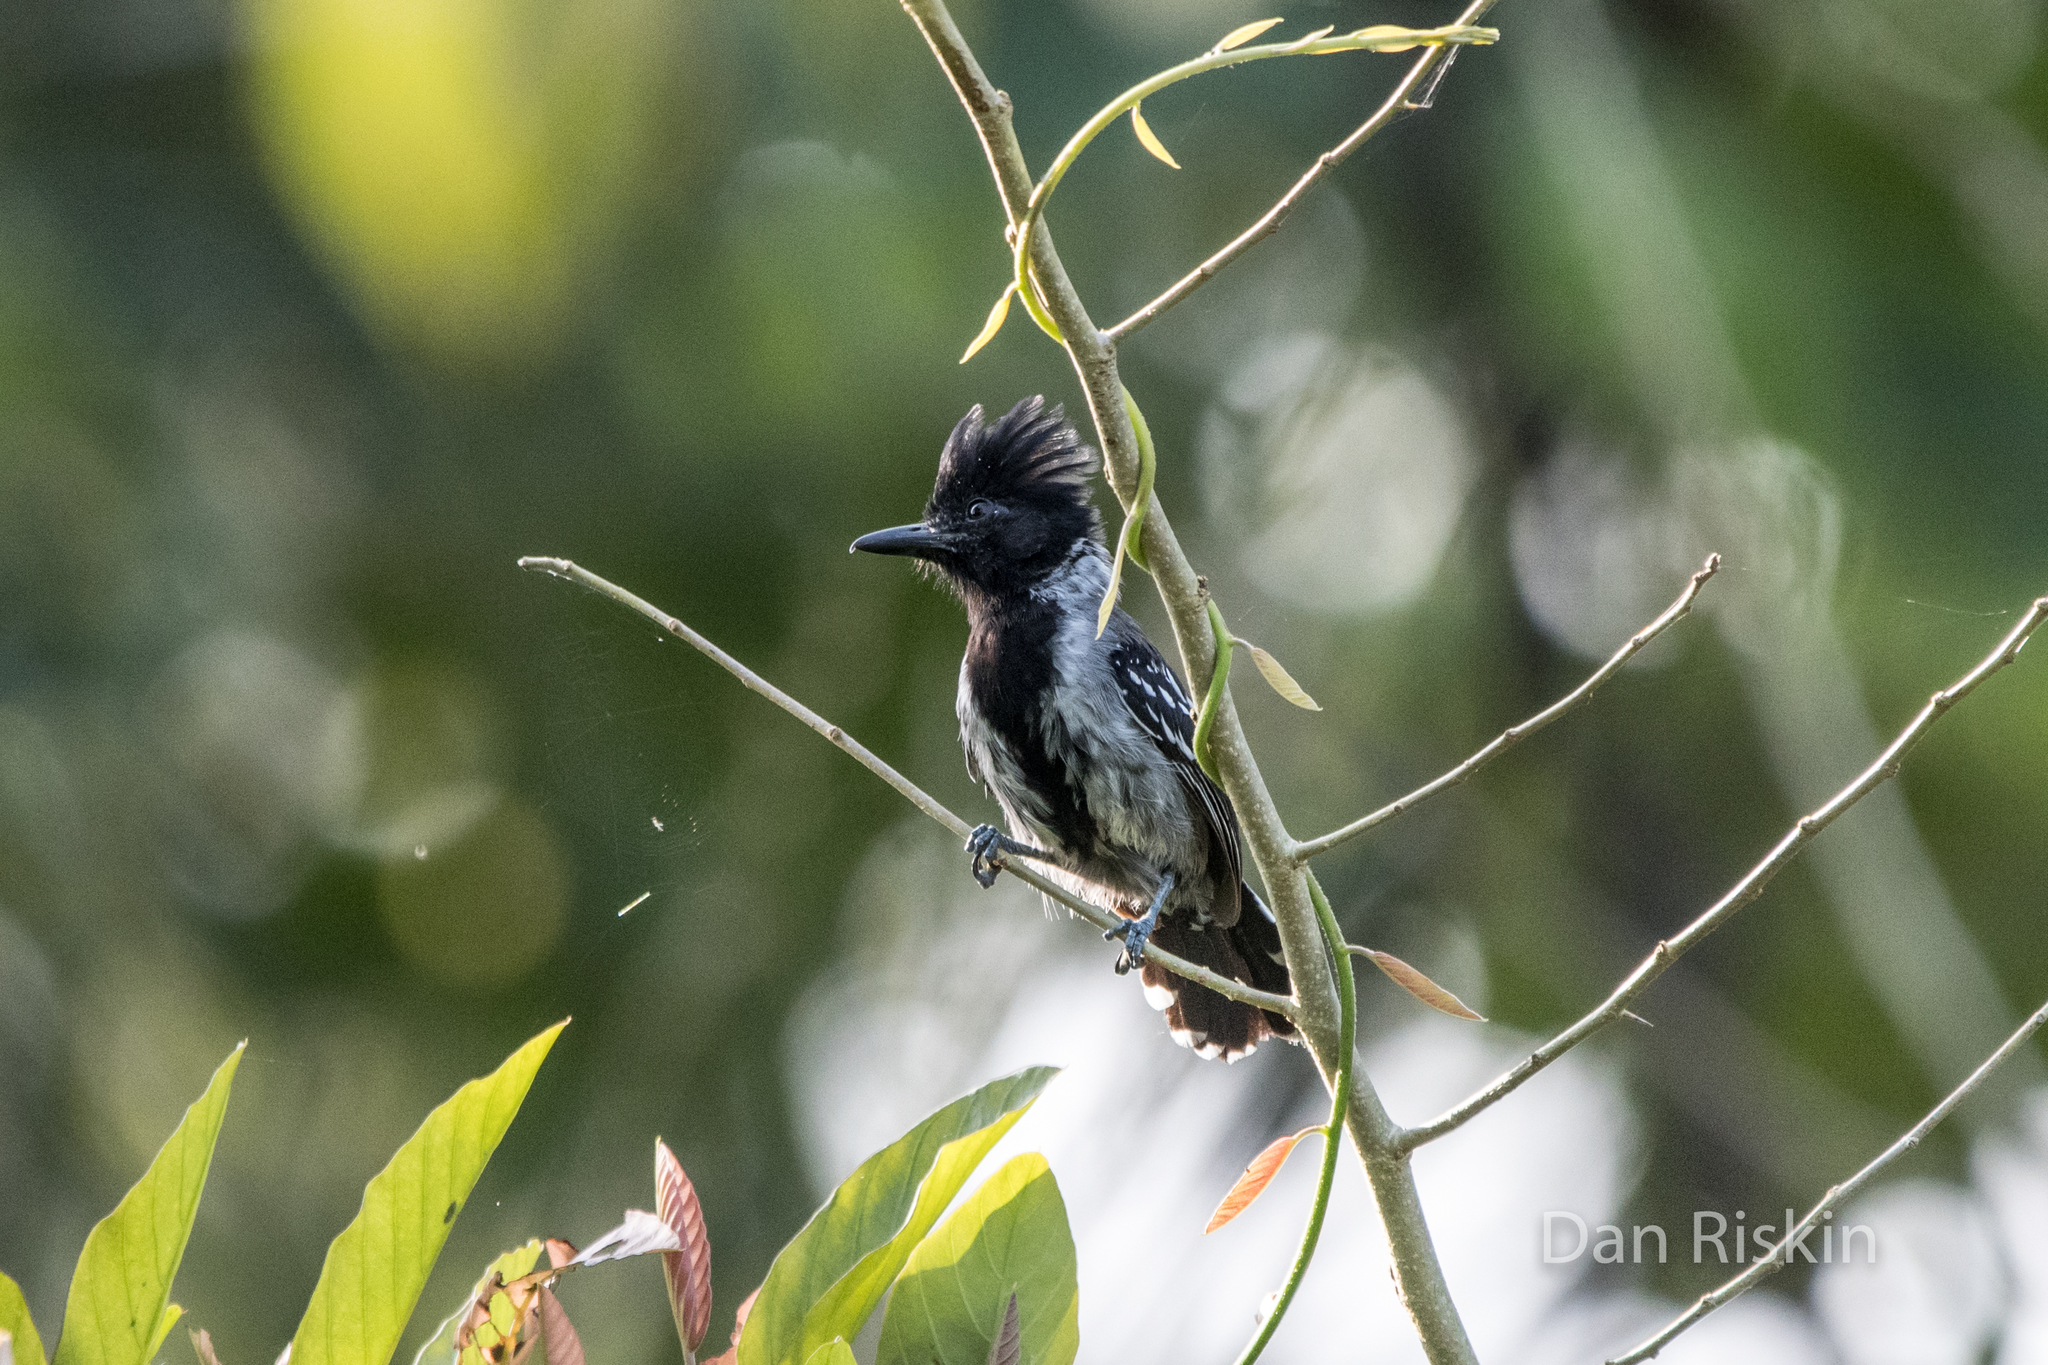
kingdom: Animalia
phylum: Chordata
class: Aves
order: Passeriformes
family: Thamnophilidae
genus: Sakesphorus
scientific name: Sakesphorus canadensis
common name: Black-crested antshrike
